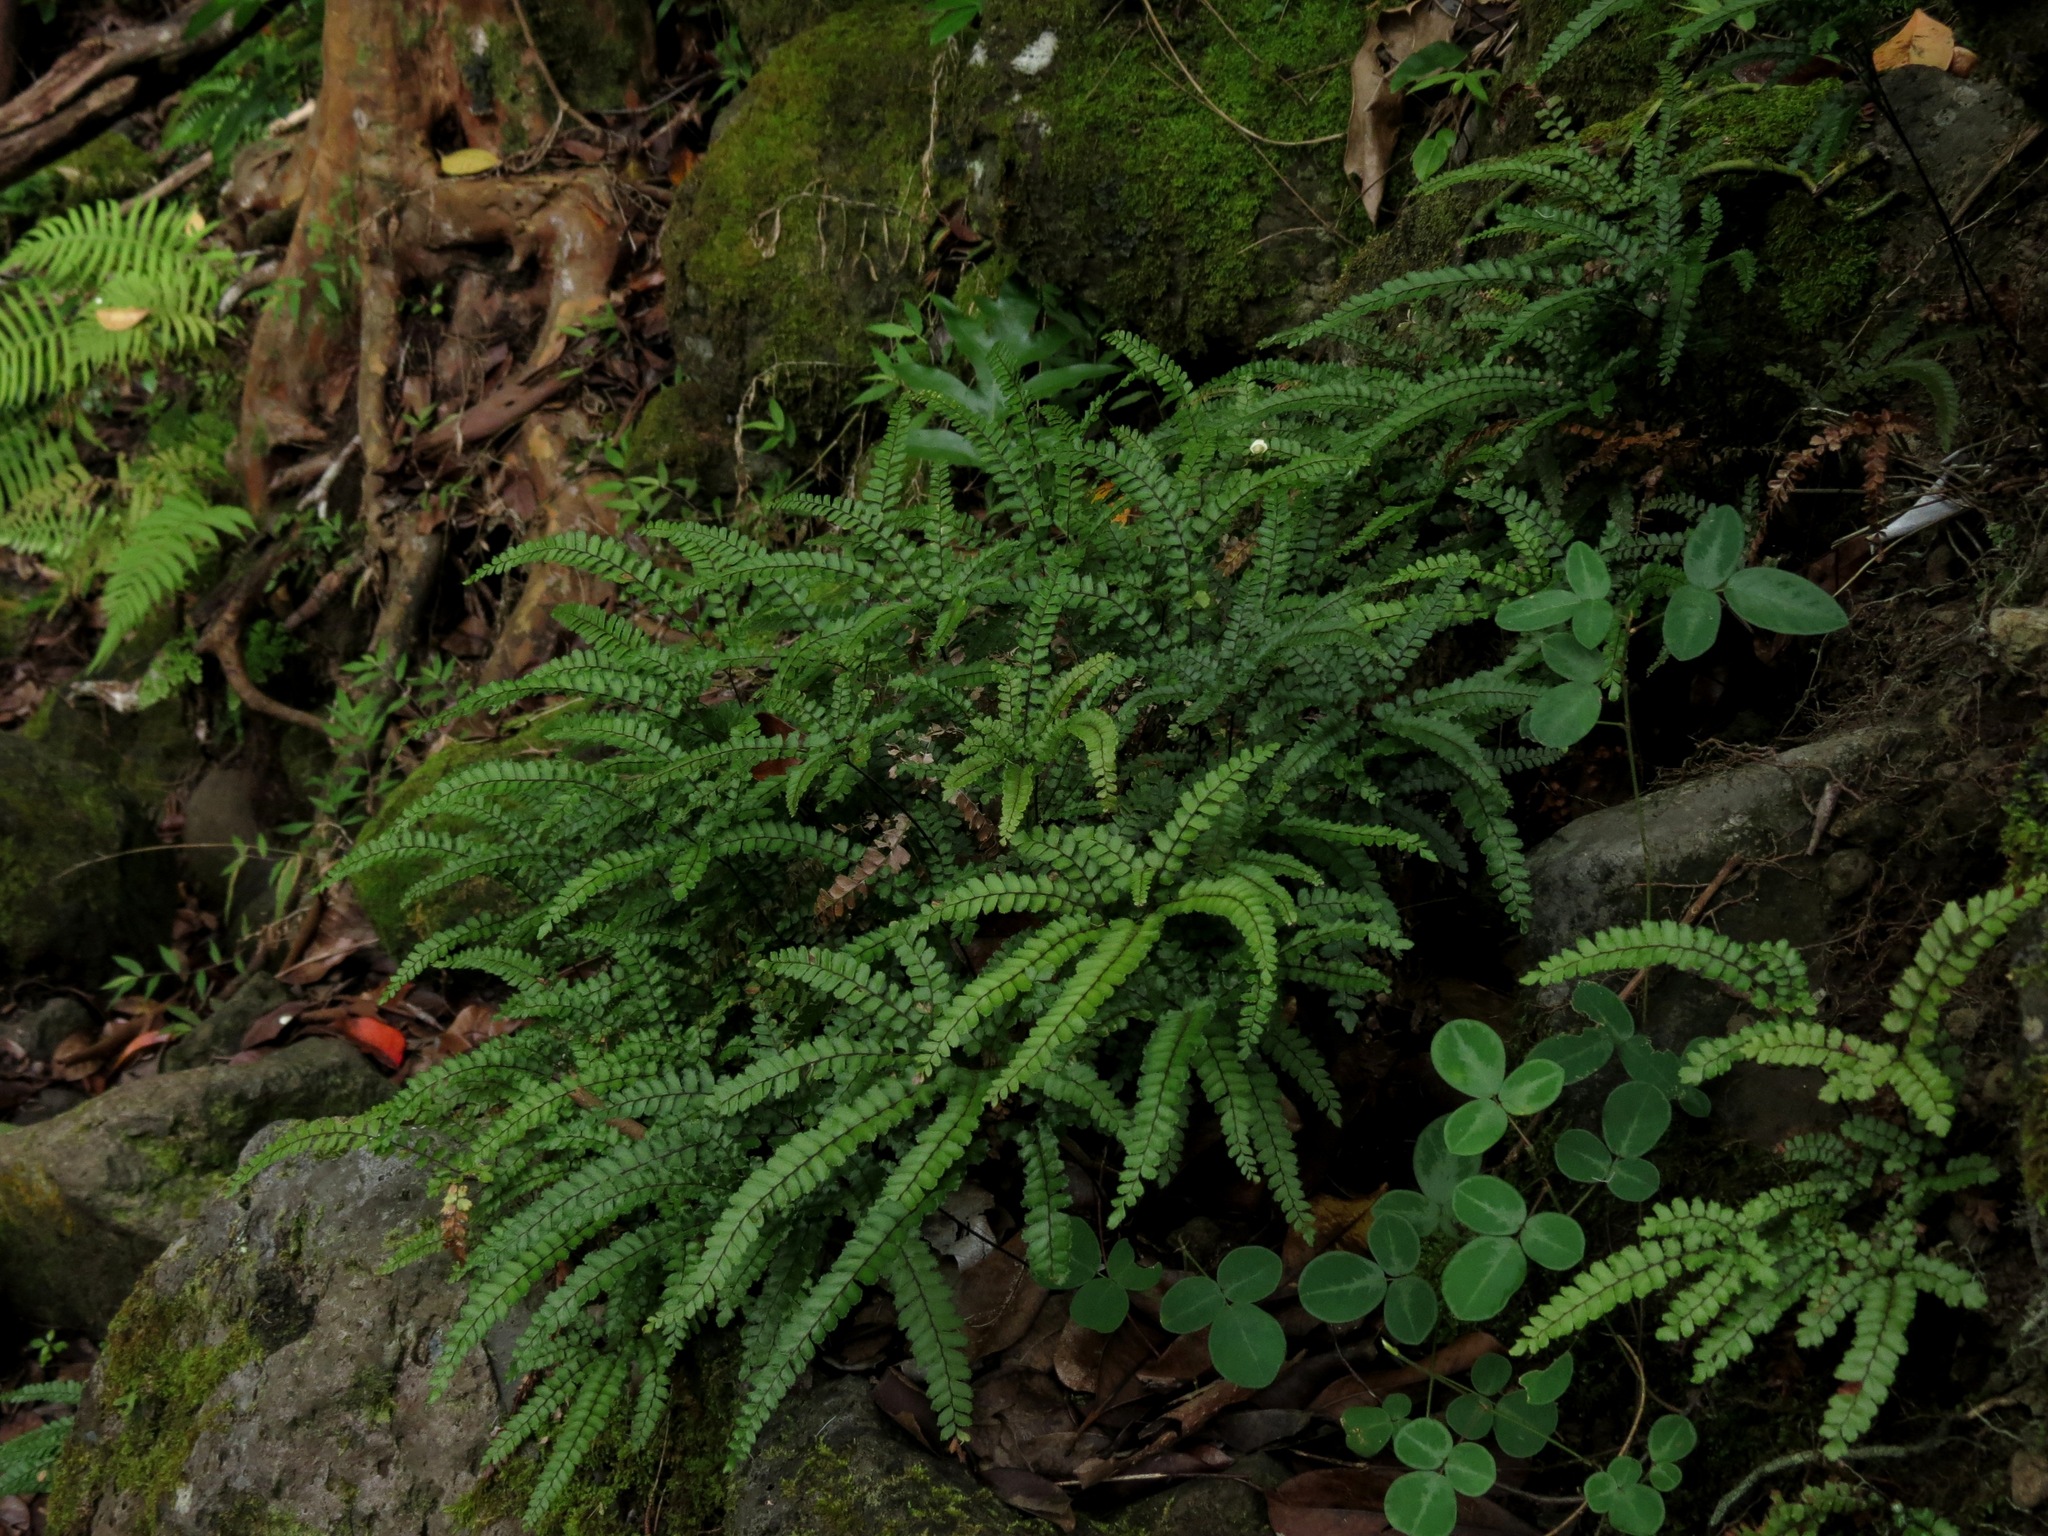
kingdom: Plantae
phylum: Tracheophyta
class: Polypodiopsida
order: Polypodiales
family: Pteridaceae
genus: Adiantum
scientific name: Adiantum hispidulum
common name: Rough maidenhair
